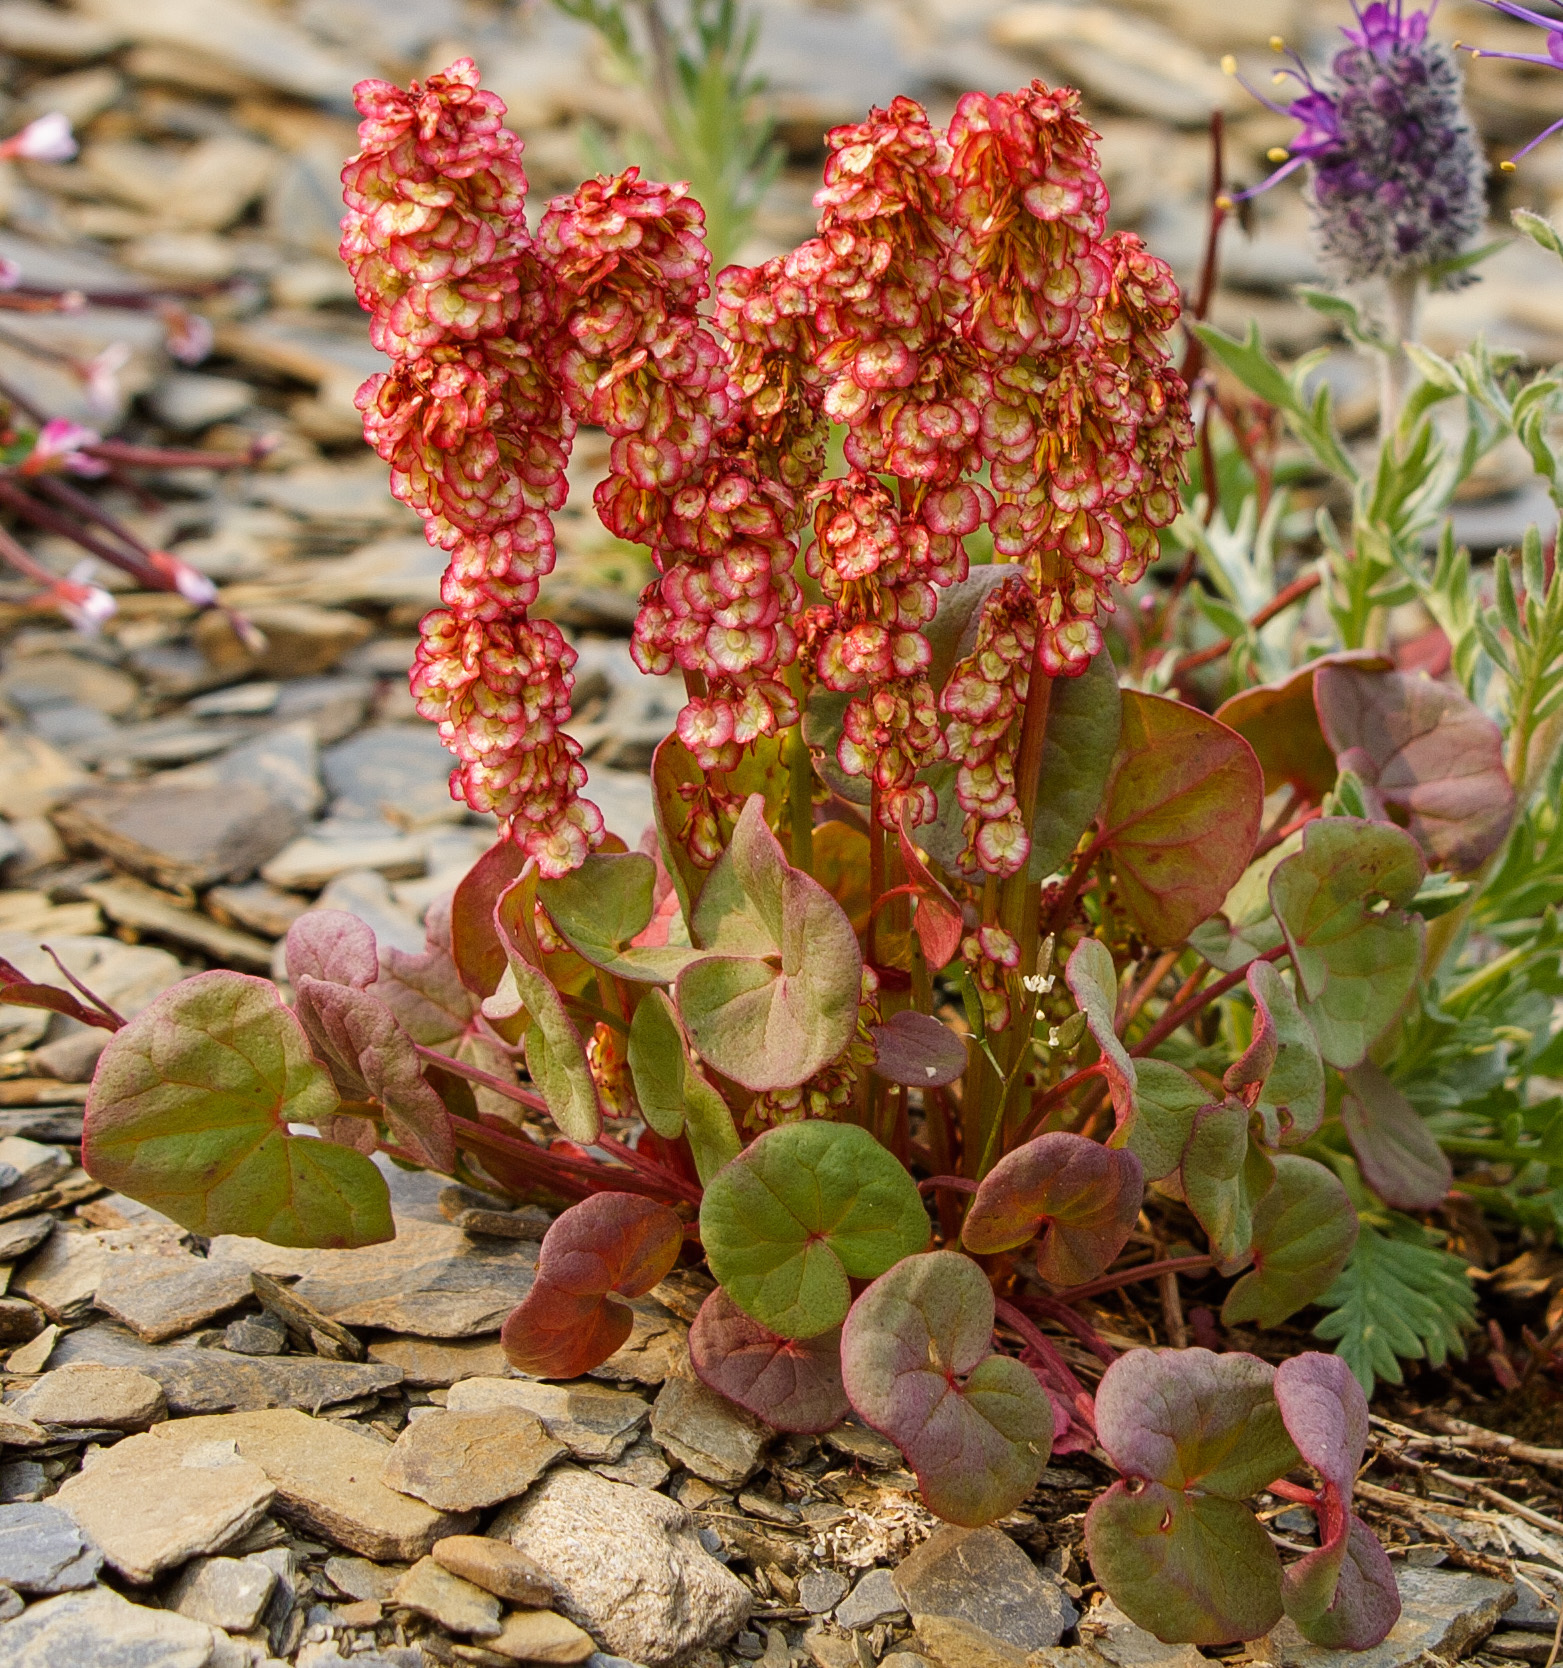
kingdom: Plantae
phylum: Tracheophyta
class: Magnoliopsida
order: Caryophyllales
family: Polygonaceae
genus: Oxyria
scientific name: Oxyria digyna
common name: Alpine mountain-sorrel
